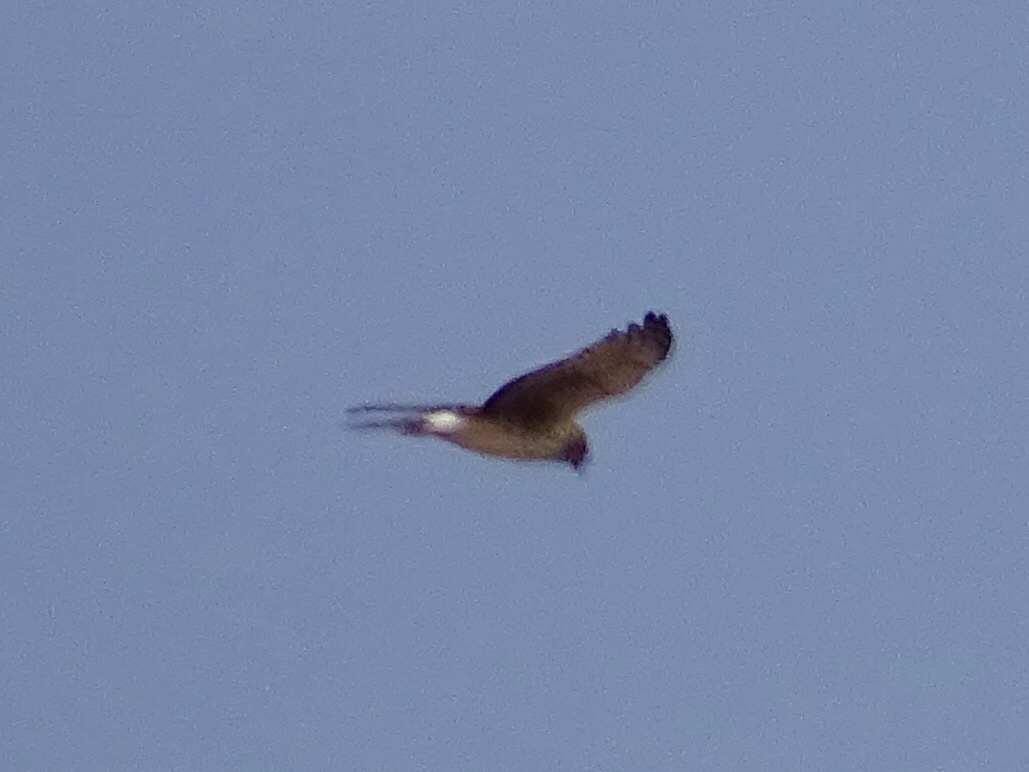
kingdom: Animalia
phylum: Chordata
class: Aves
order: Accipitriformes
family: Accipitridae
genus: Circus
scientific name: Circus cyaneus
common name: Hen harrier
